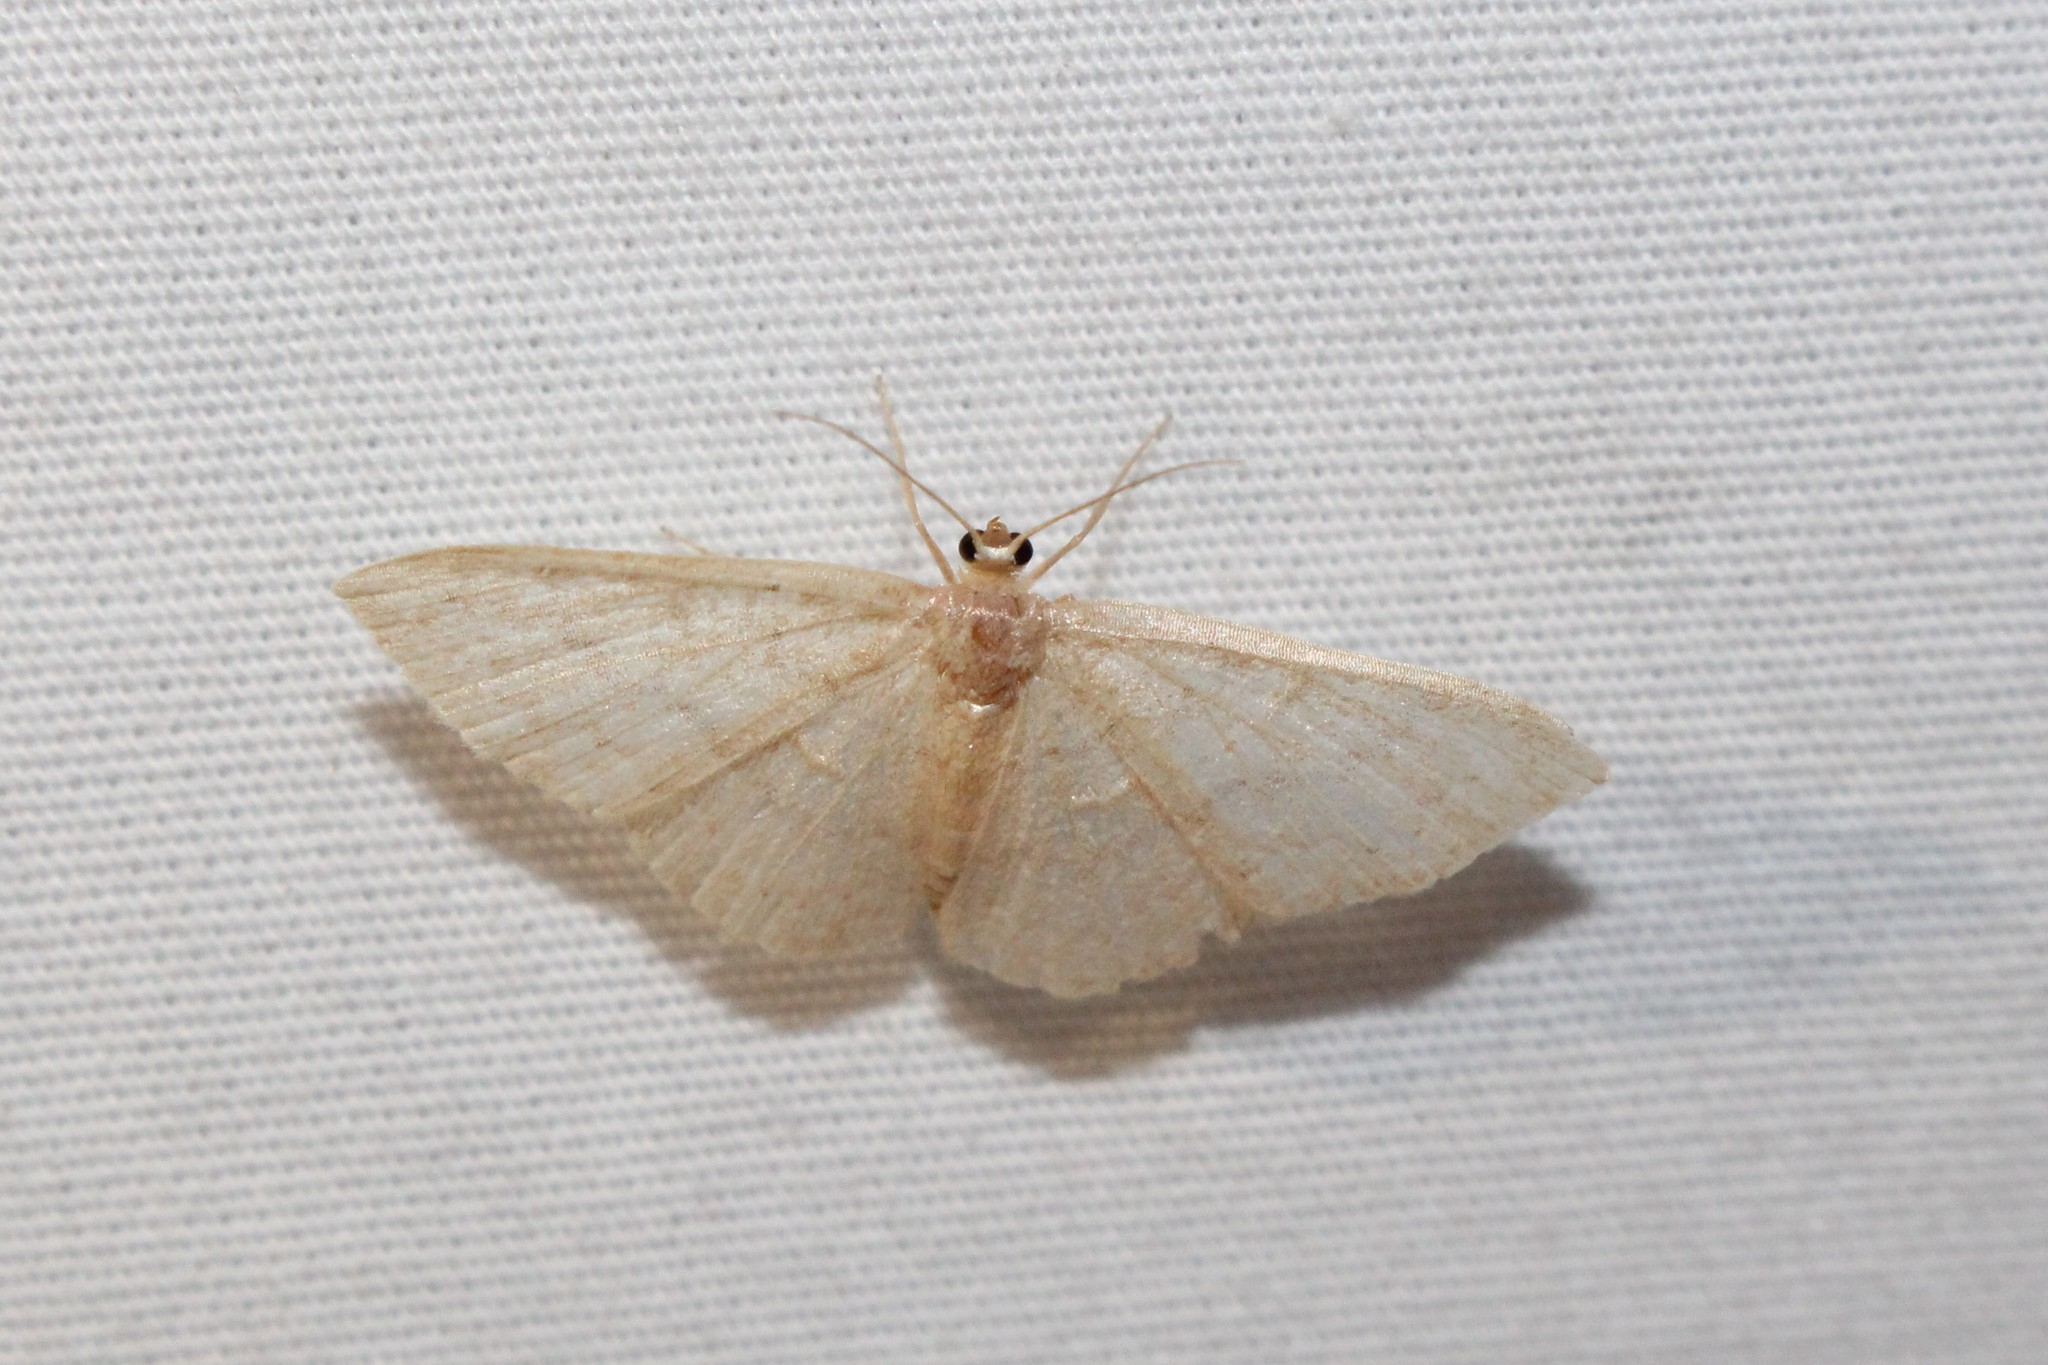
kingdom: Animalia
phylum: Arthropoda
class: Insecta
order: Lepidoptera
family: Geometridae
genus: Pleuroprucha
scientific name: Pleuroprucha insulsaria
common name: Common tan wave
